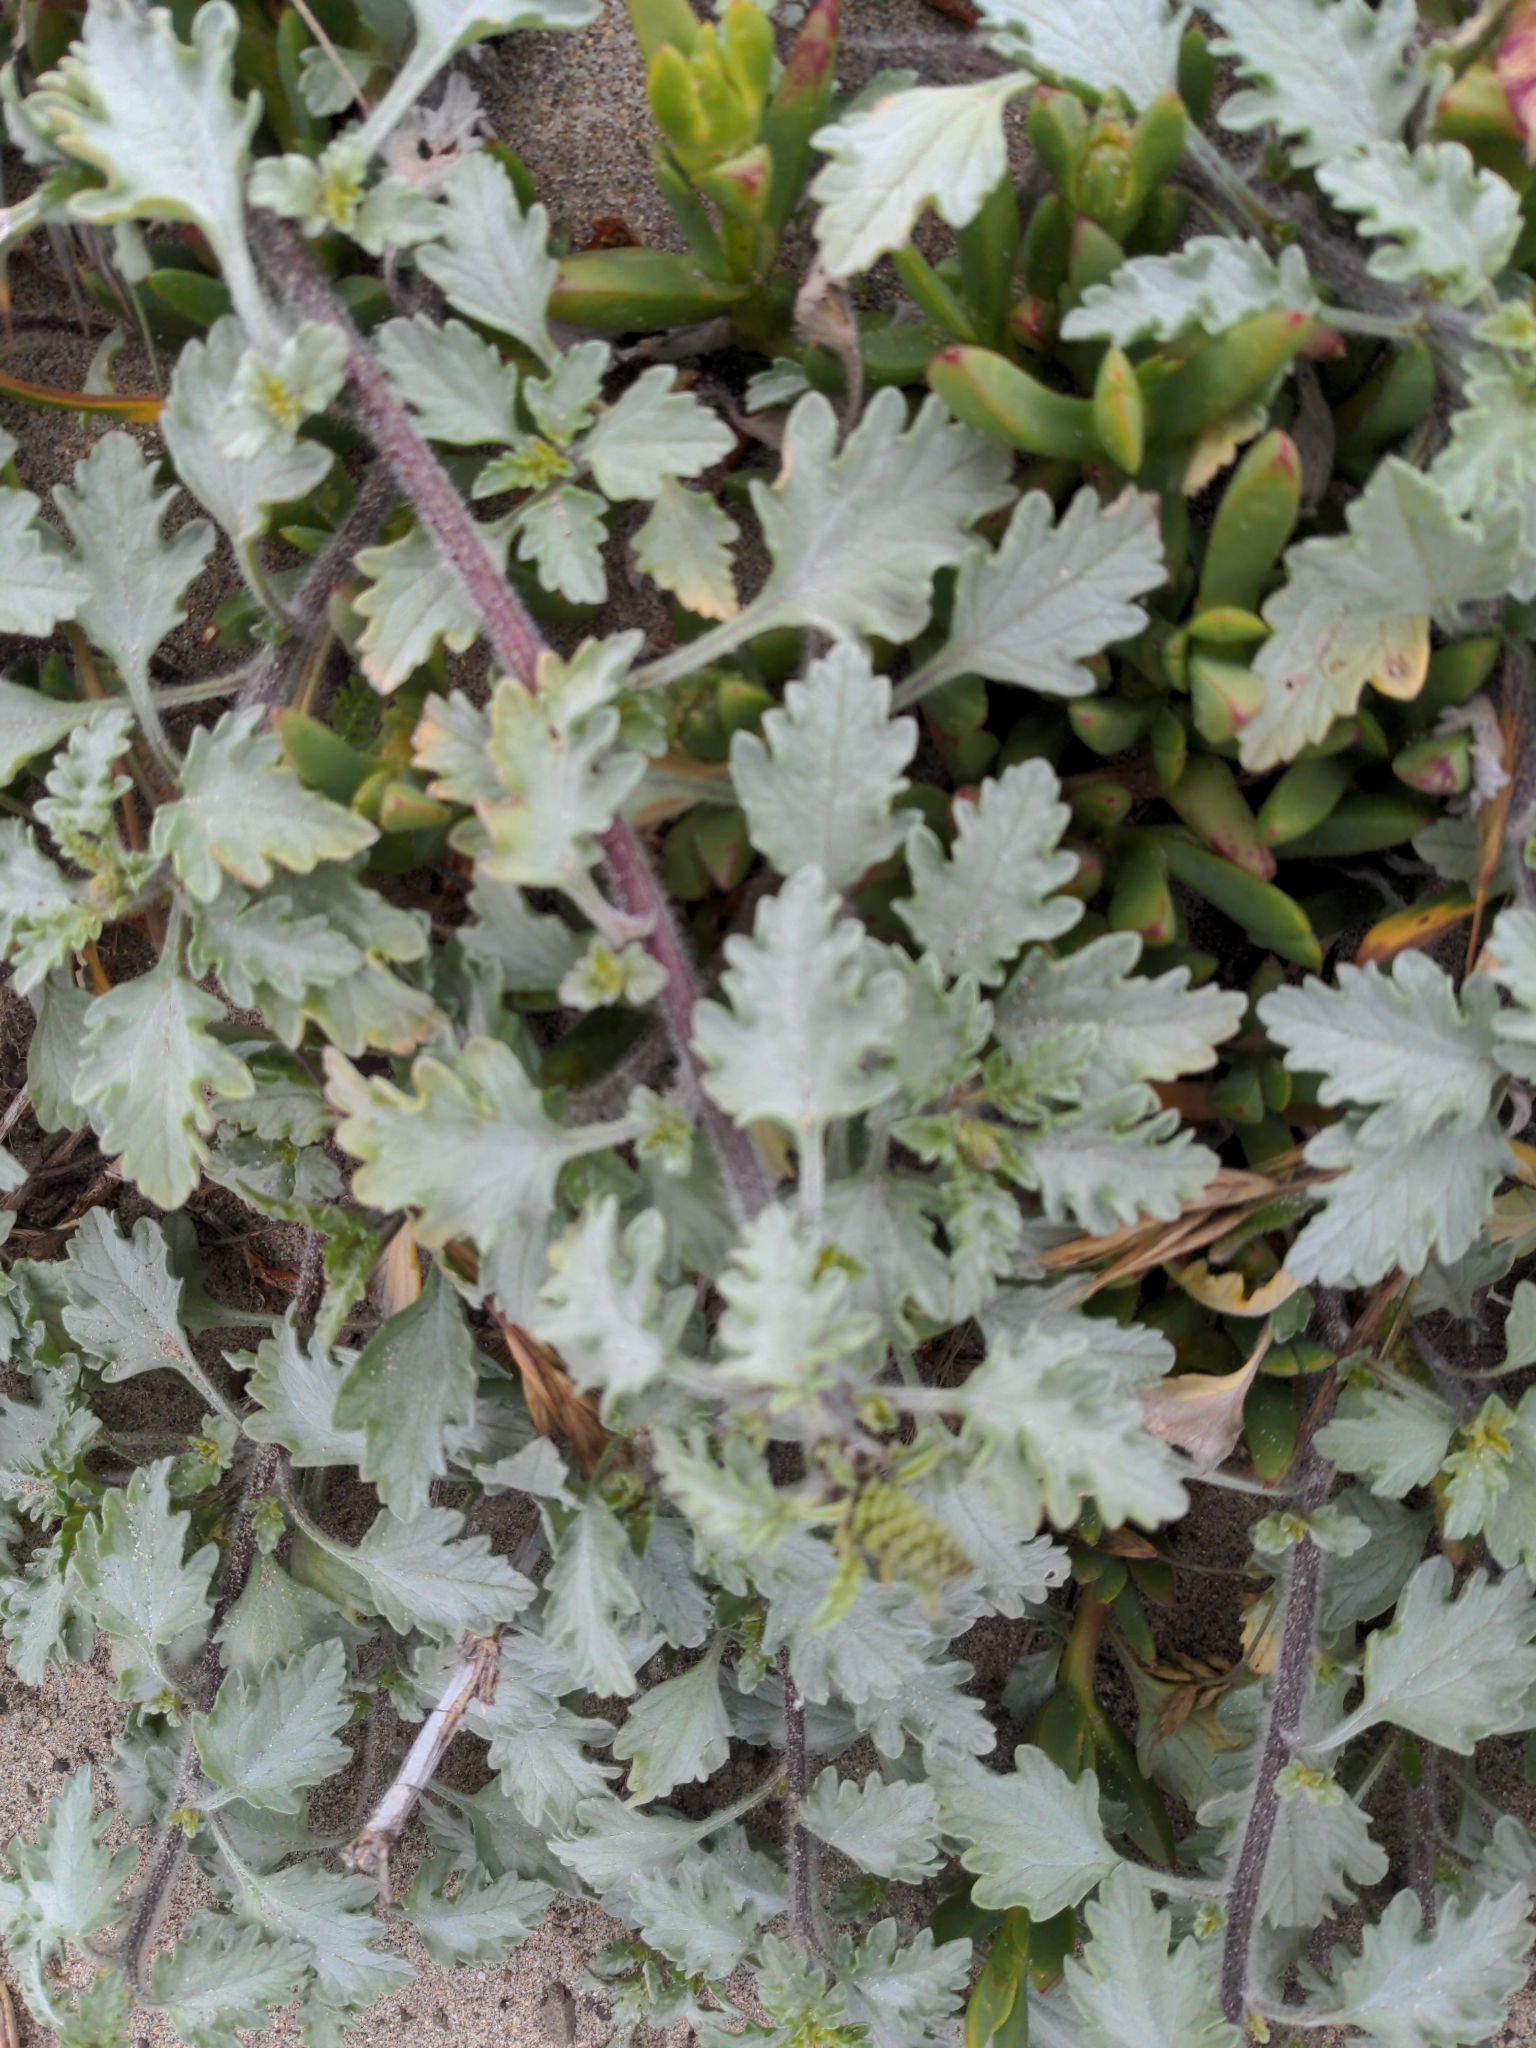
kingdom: Plantae
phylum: Tracheophyta
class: Magnoliopsida
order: Asterales
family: Asteraceae
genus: Ambrosia
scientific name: Ambrosia chamissonis
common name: Beachbur
